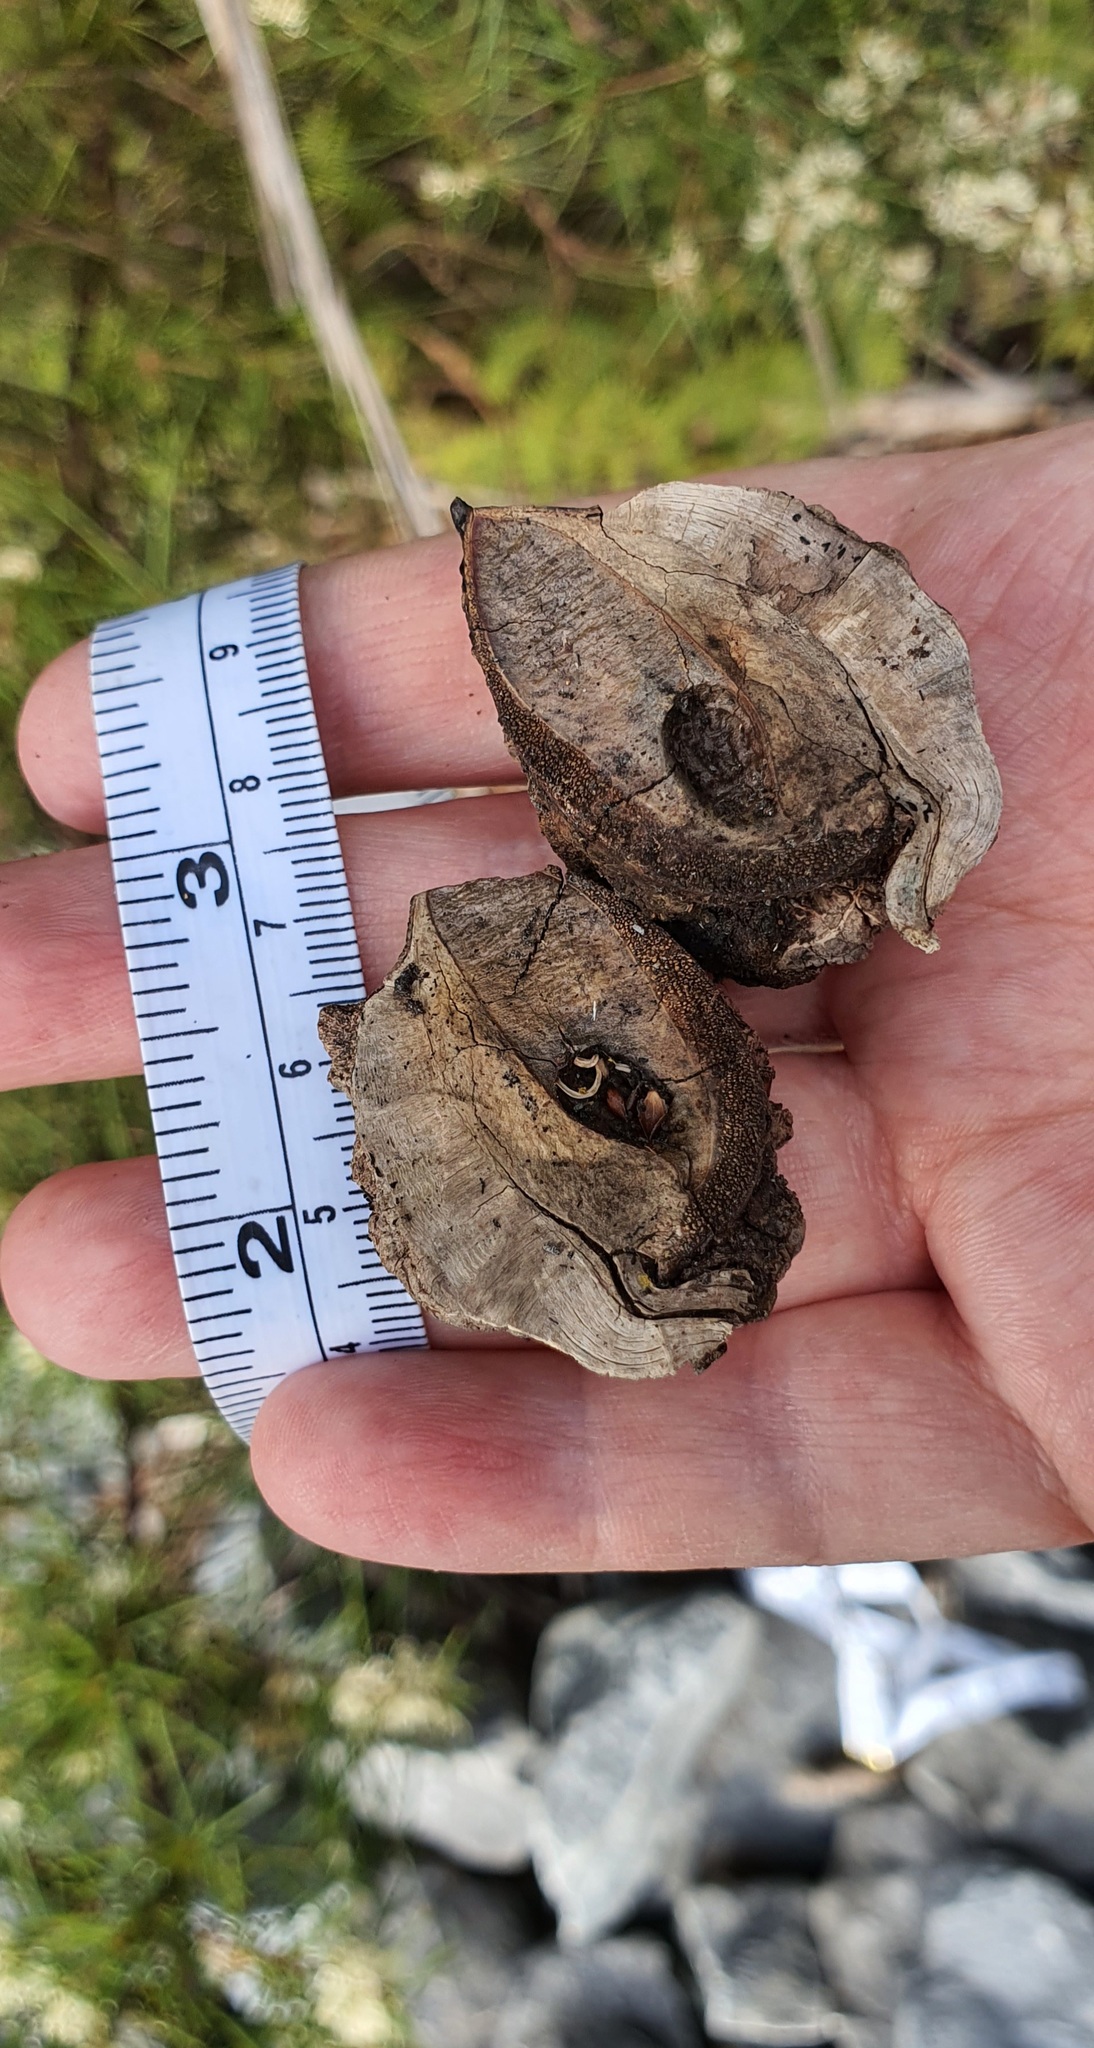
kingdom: Plantae
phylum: Tracheophyta
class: Magnoliopsida
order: Proteales
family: Proteaceae
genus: Hakea
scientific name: Hakea decurrens
